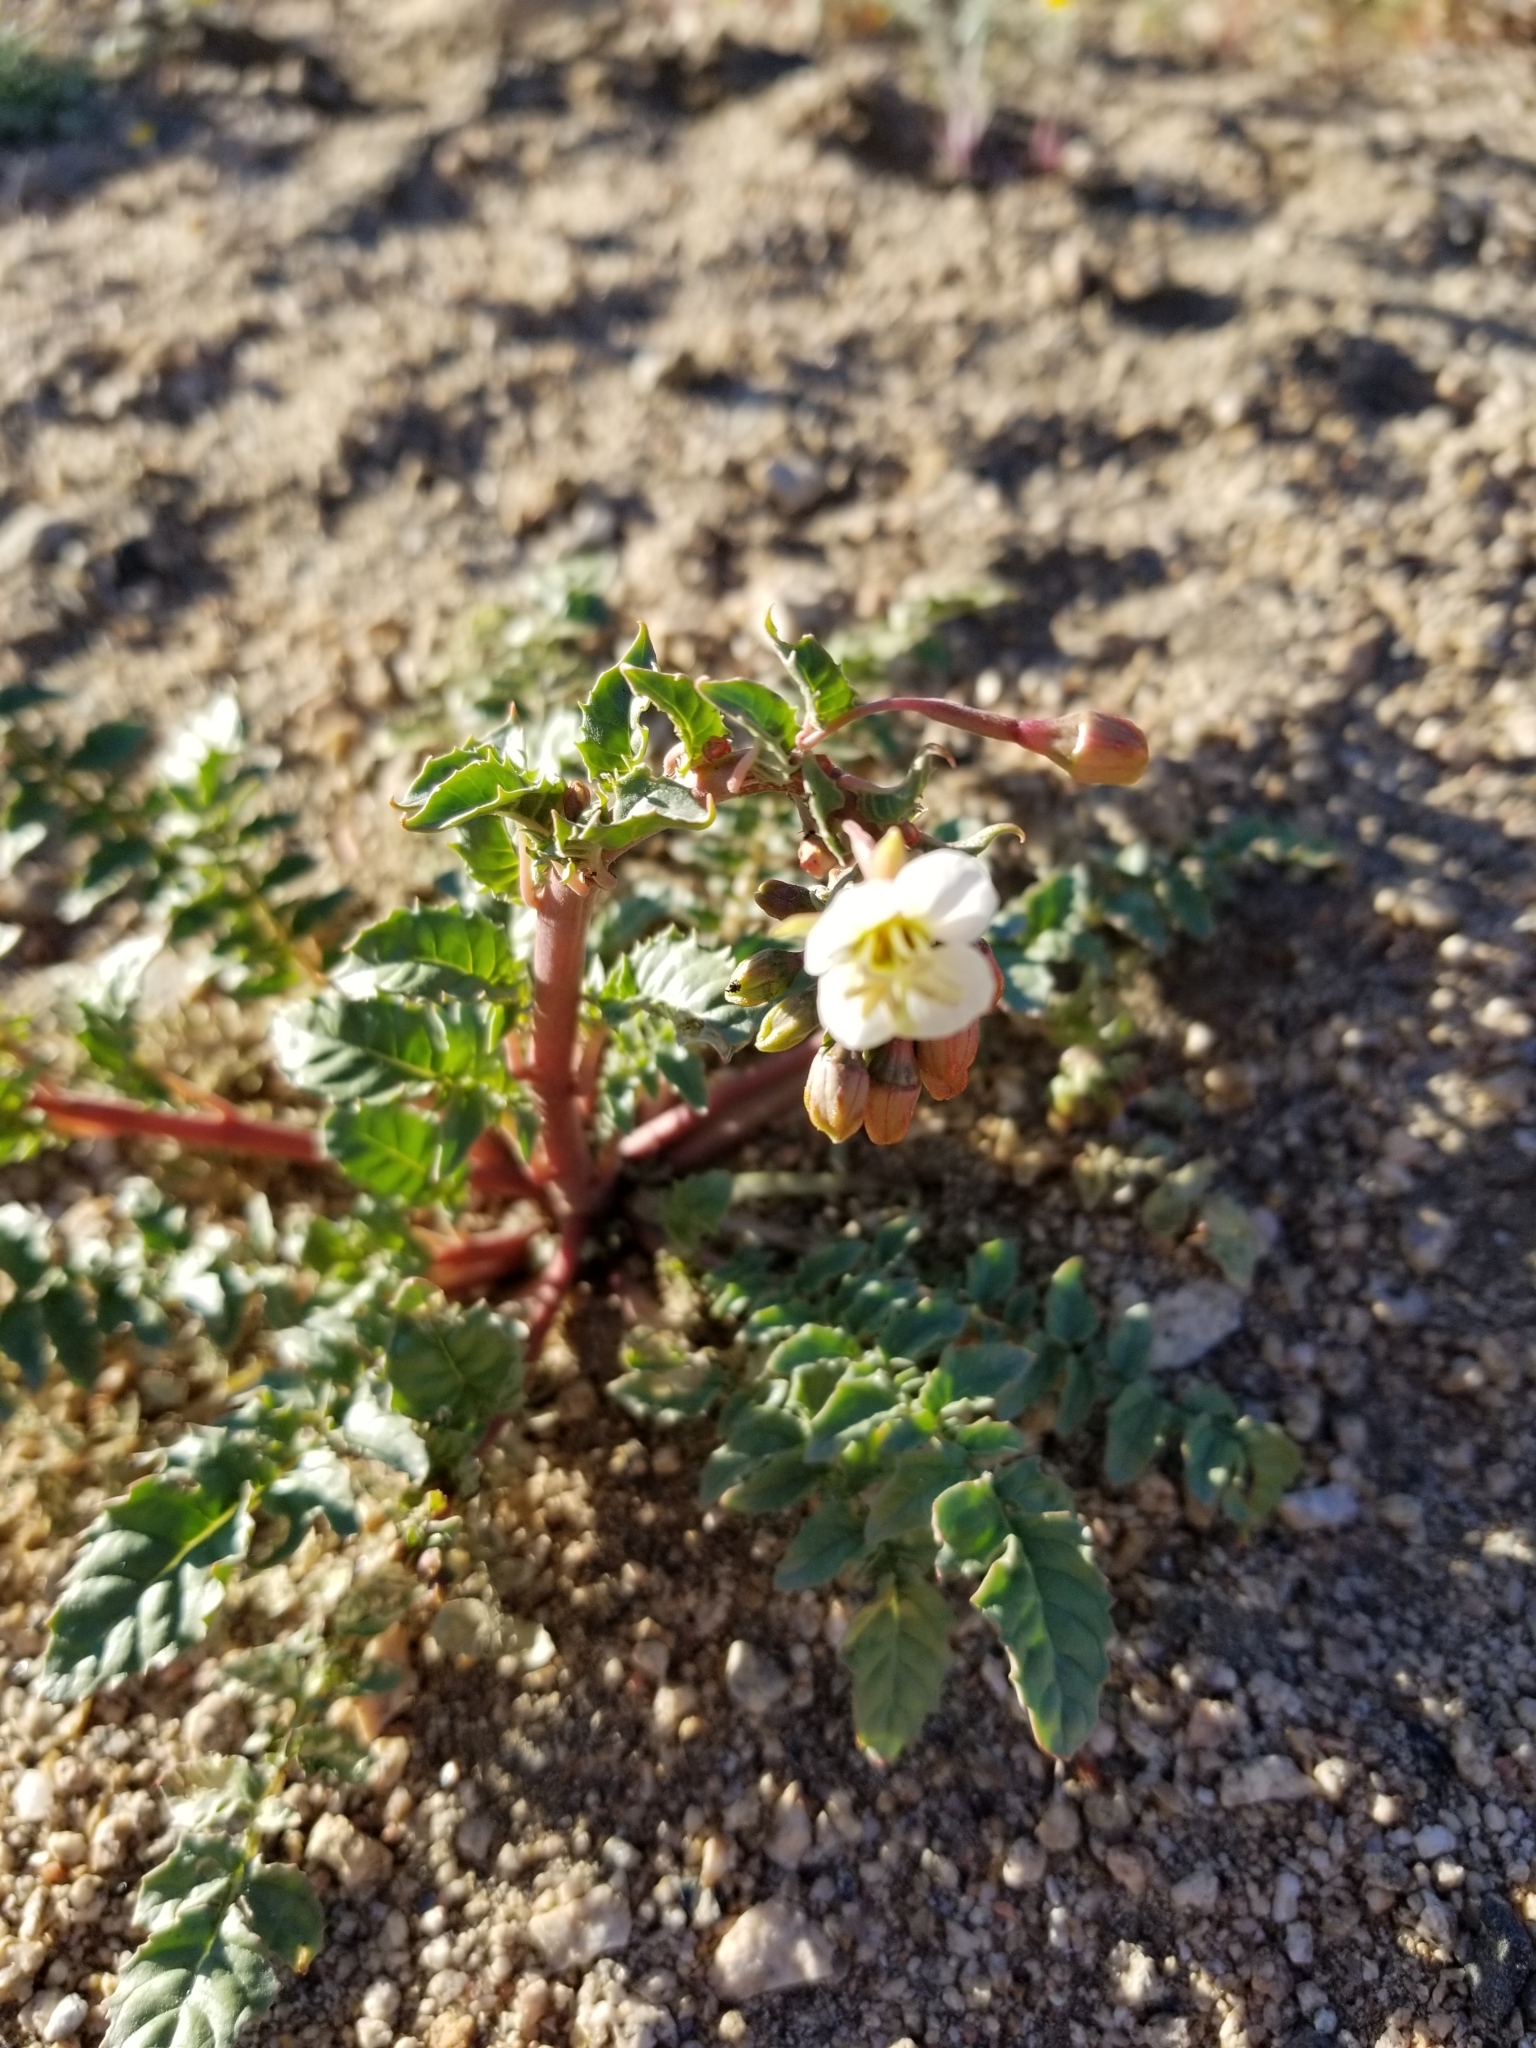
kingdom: Plantae
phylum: Tracheophyta
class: Magnoliopsida
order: Myrtales
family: Onagraceae
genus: Chylismia
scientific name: Chylismia claviformis
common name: Browneyes
